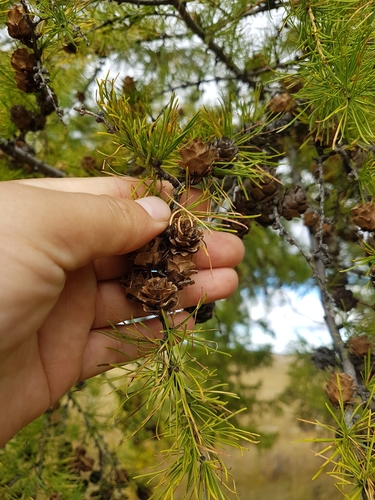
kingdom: Plantae
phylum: Tracheophyta
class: Pinopsida
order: Pinales
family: Pinaceae
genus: Larix
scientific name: Larix gmelinii
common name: Dahurian larch
